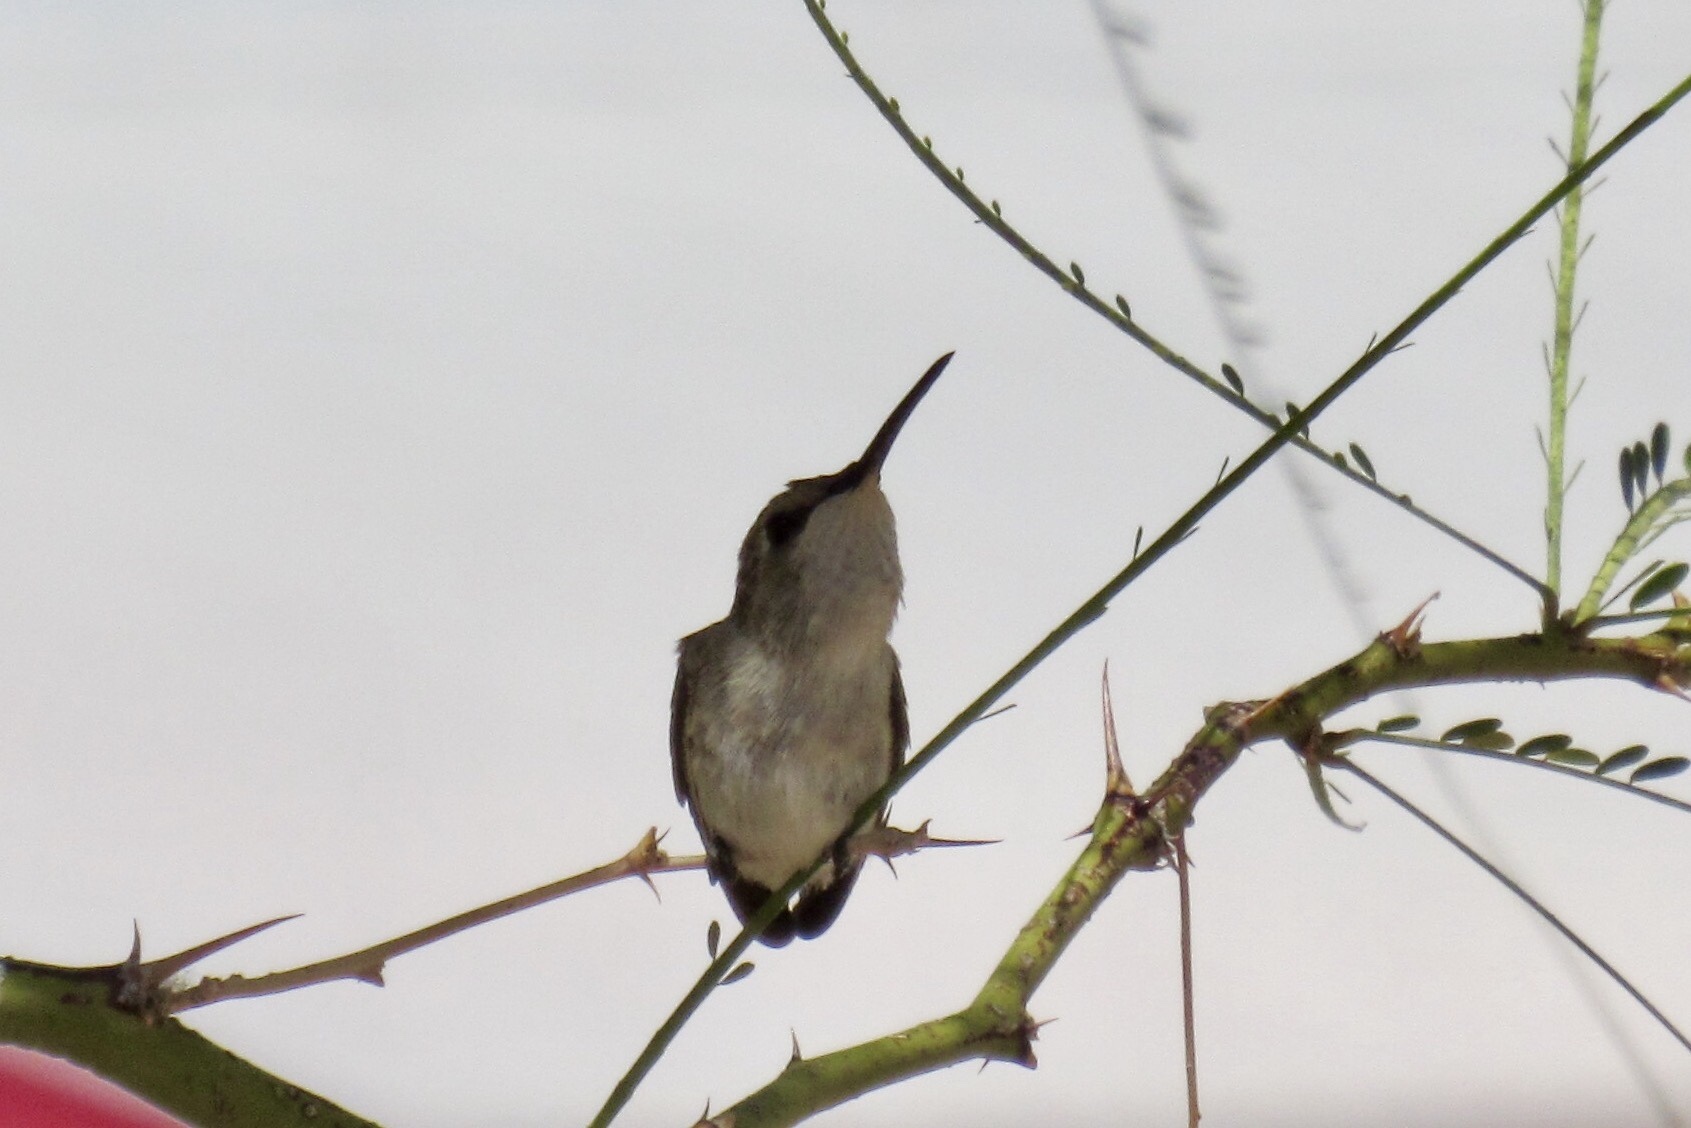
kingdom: Animalia
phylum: Chordata
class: Aves
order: Apodiformes
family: Trochilidae
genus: Archilochus
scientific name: Archilochus alexandri
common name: Black-chinned hummingbird
